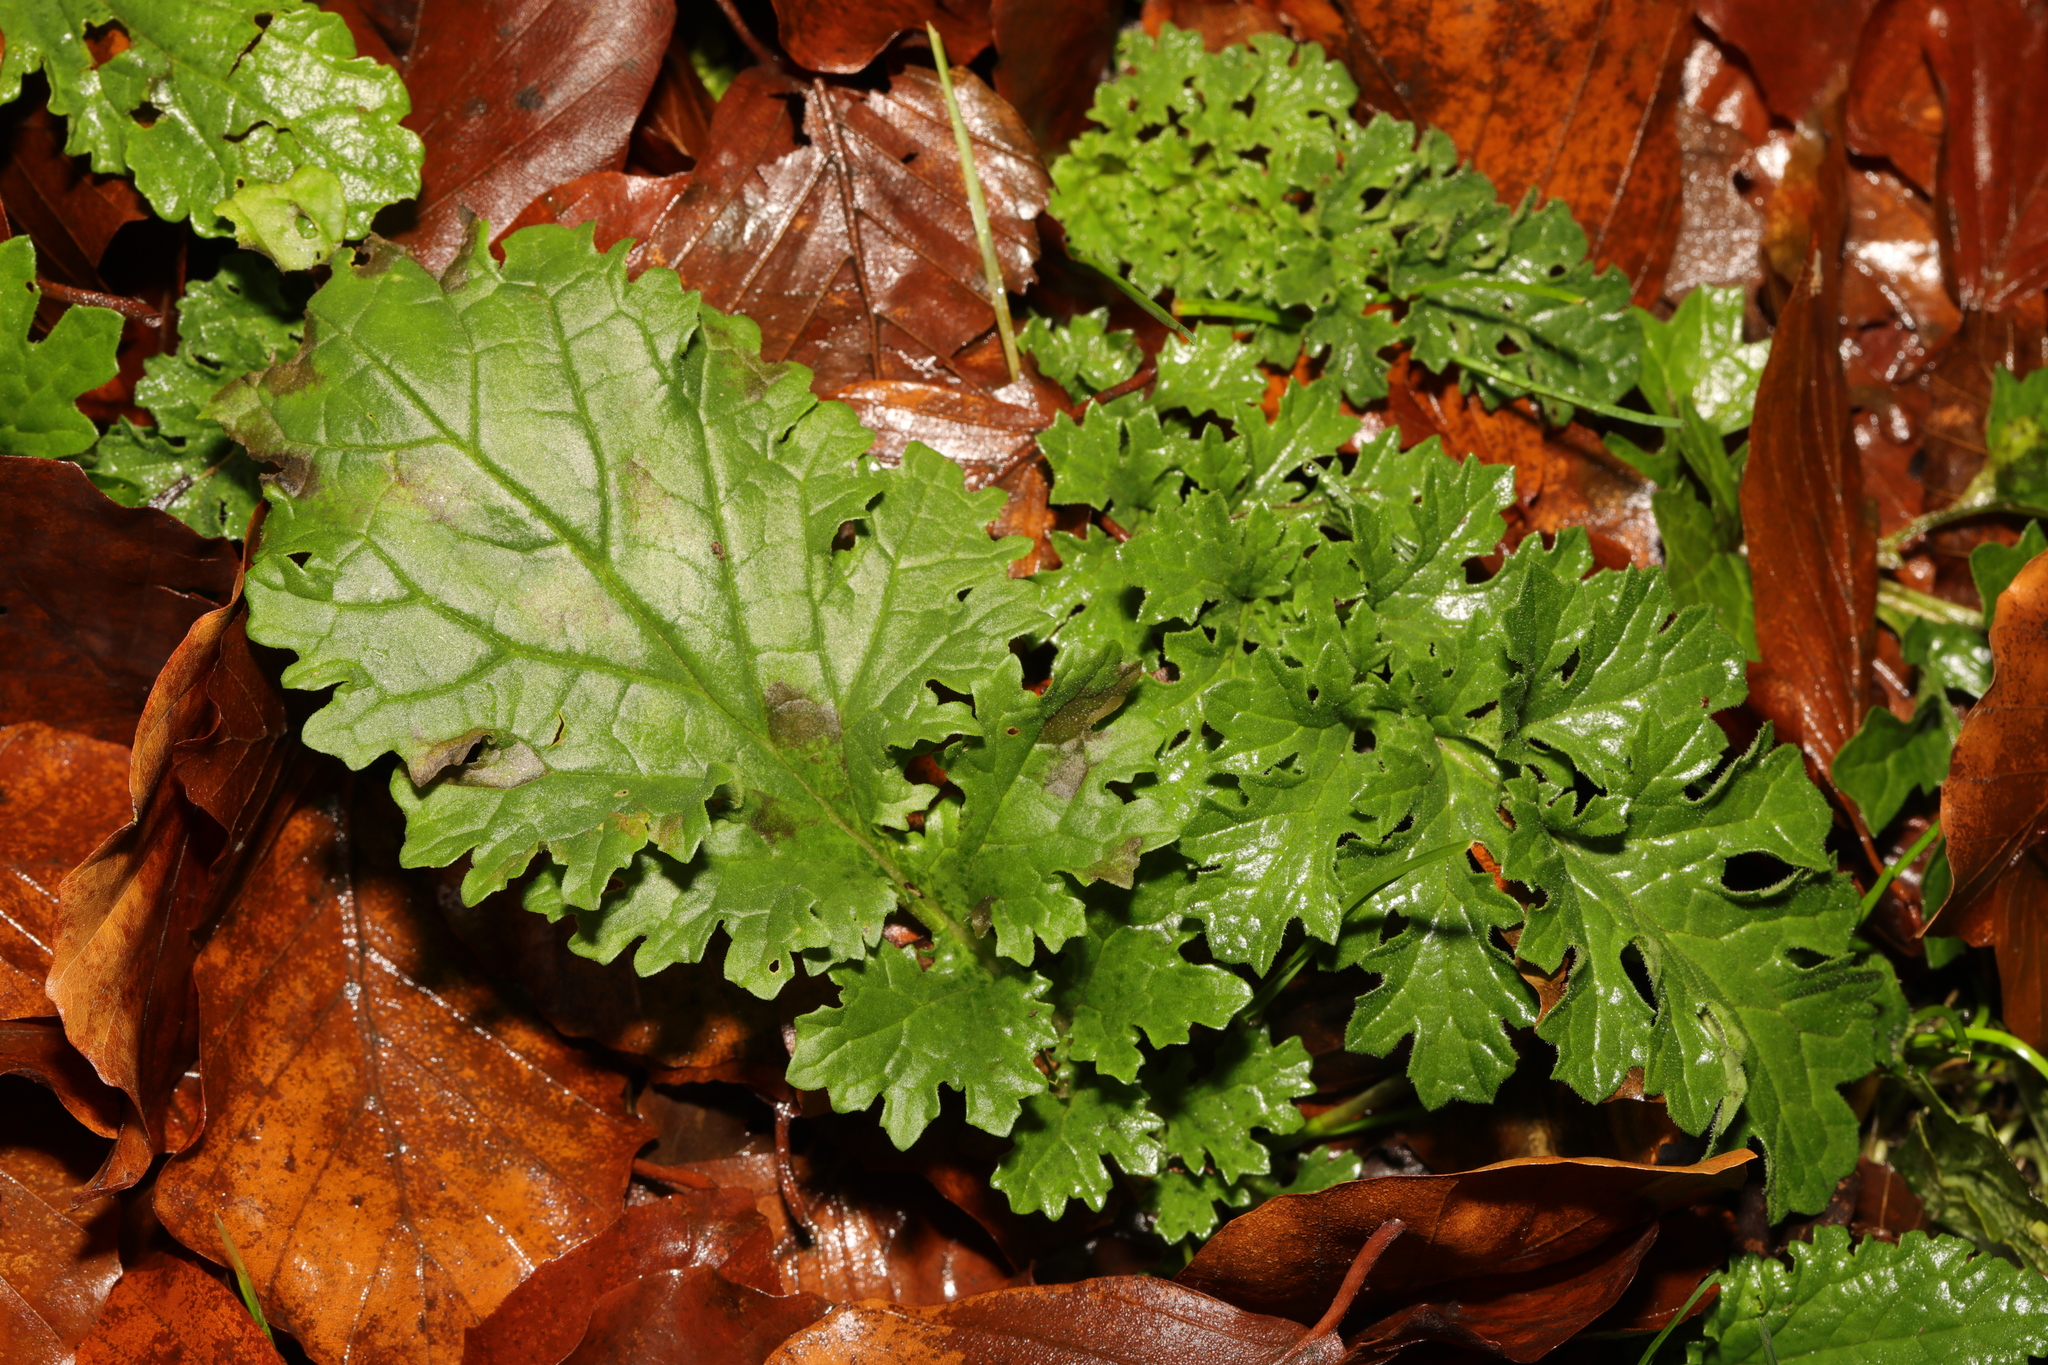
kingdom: Plantae
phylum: Tracheophyta
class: Magnoliopsida
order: Asterales
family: Asteraceae
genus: Jacobaea
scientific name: Jacobaea vulgaris
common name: Stinking willie
